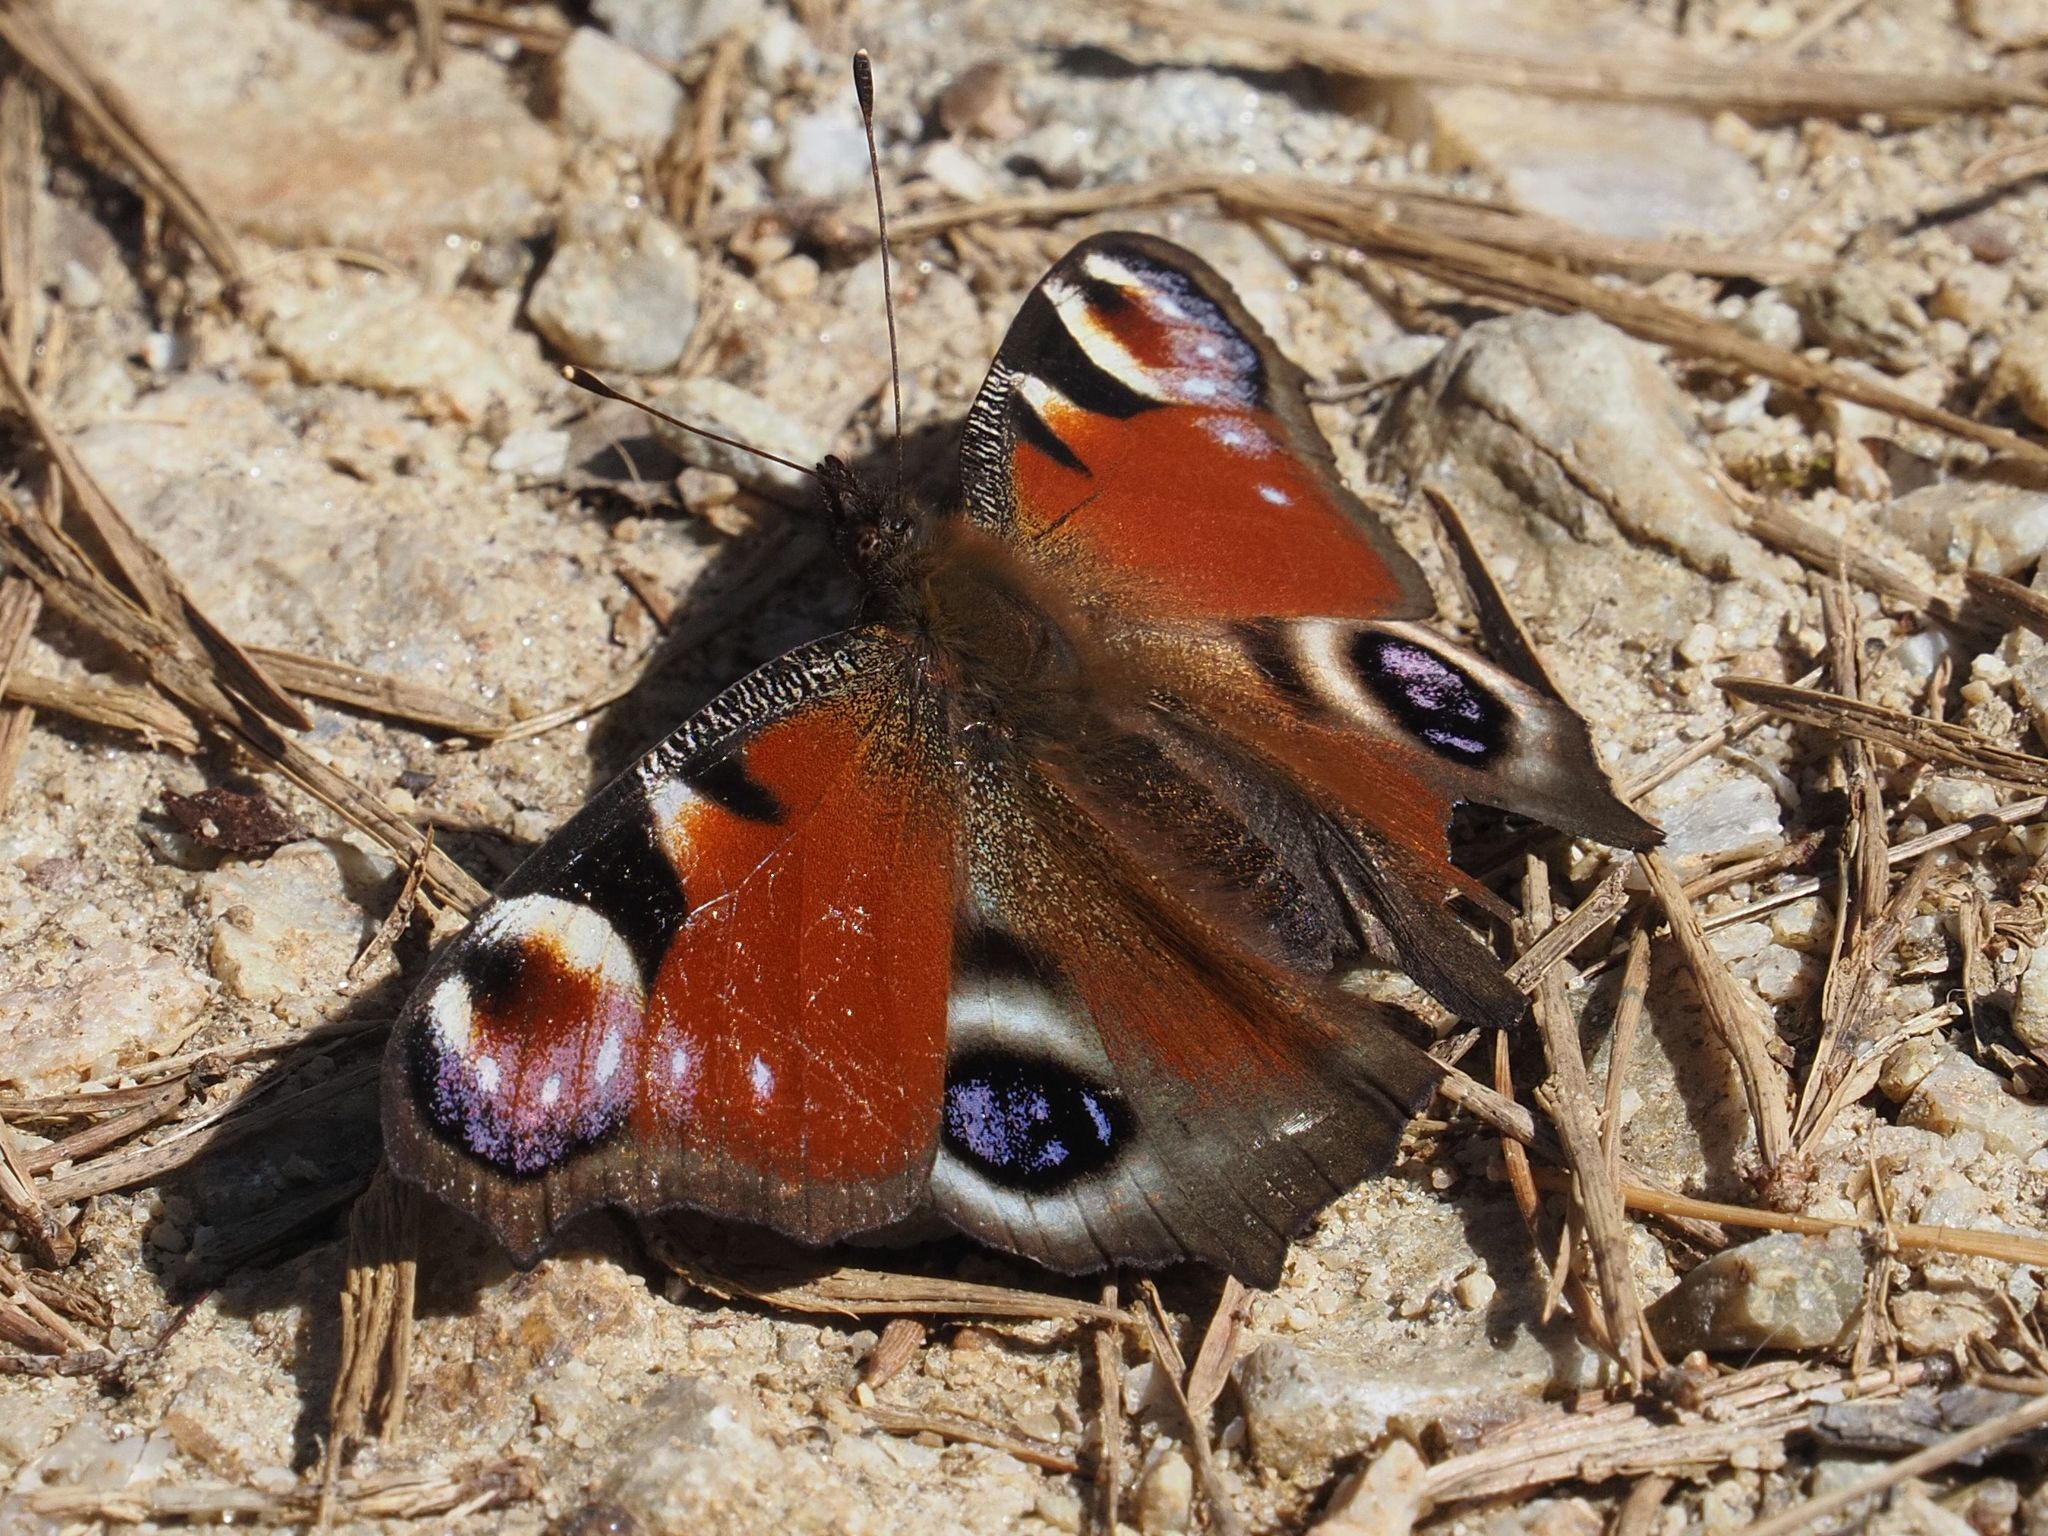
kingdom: Animalia
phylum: Arthropoda
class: Insecta
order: Lepidoptera
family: Nymphalidae
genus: Aglais
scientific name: Aglais io
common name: Peacock
